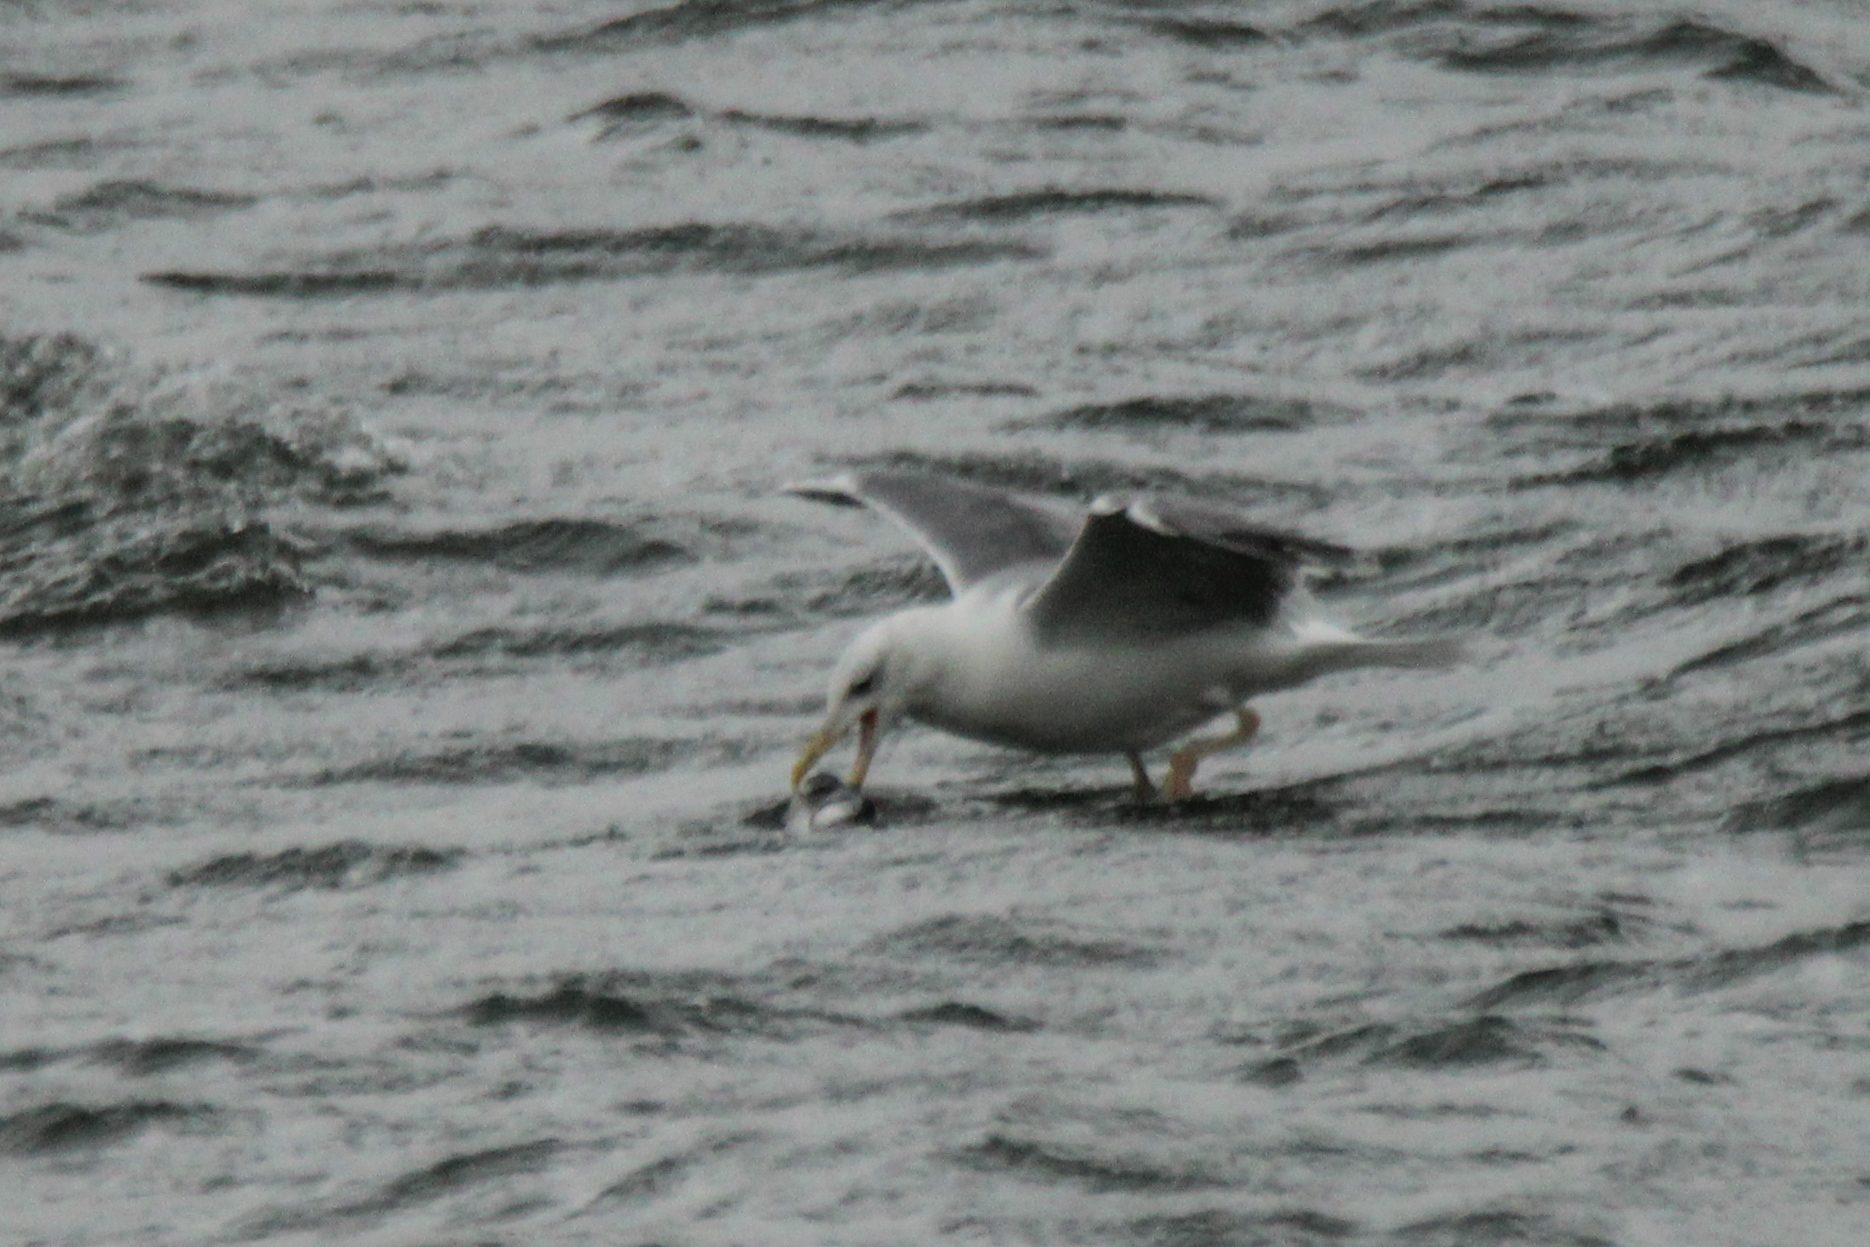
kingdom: Animalia
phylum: Chordata
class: Aves
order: Charadriiformes
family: Laridae
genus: Larus
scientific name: Larus fuscus
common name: Lesser black-backed gull
